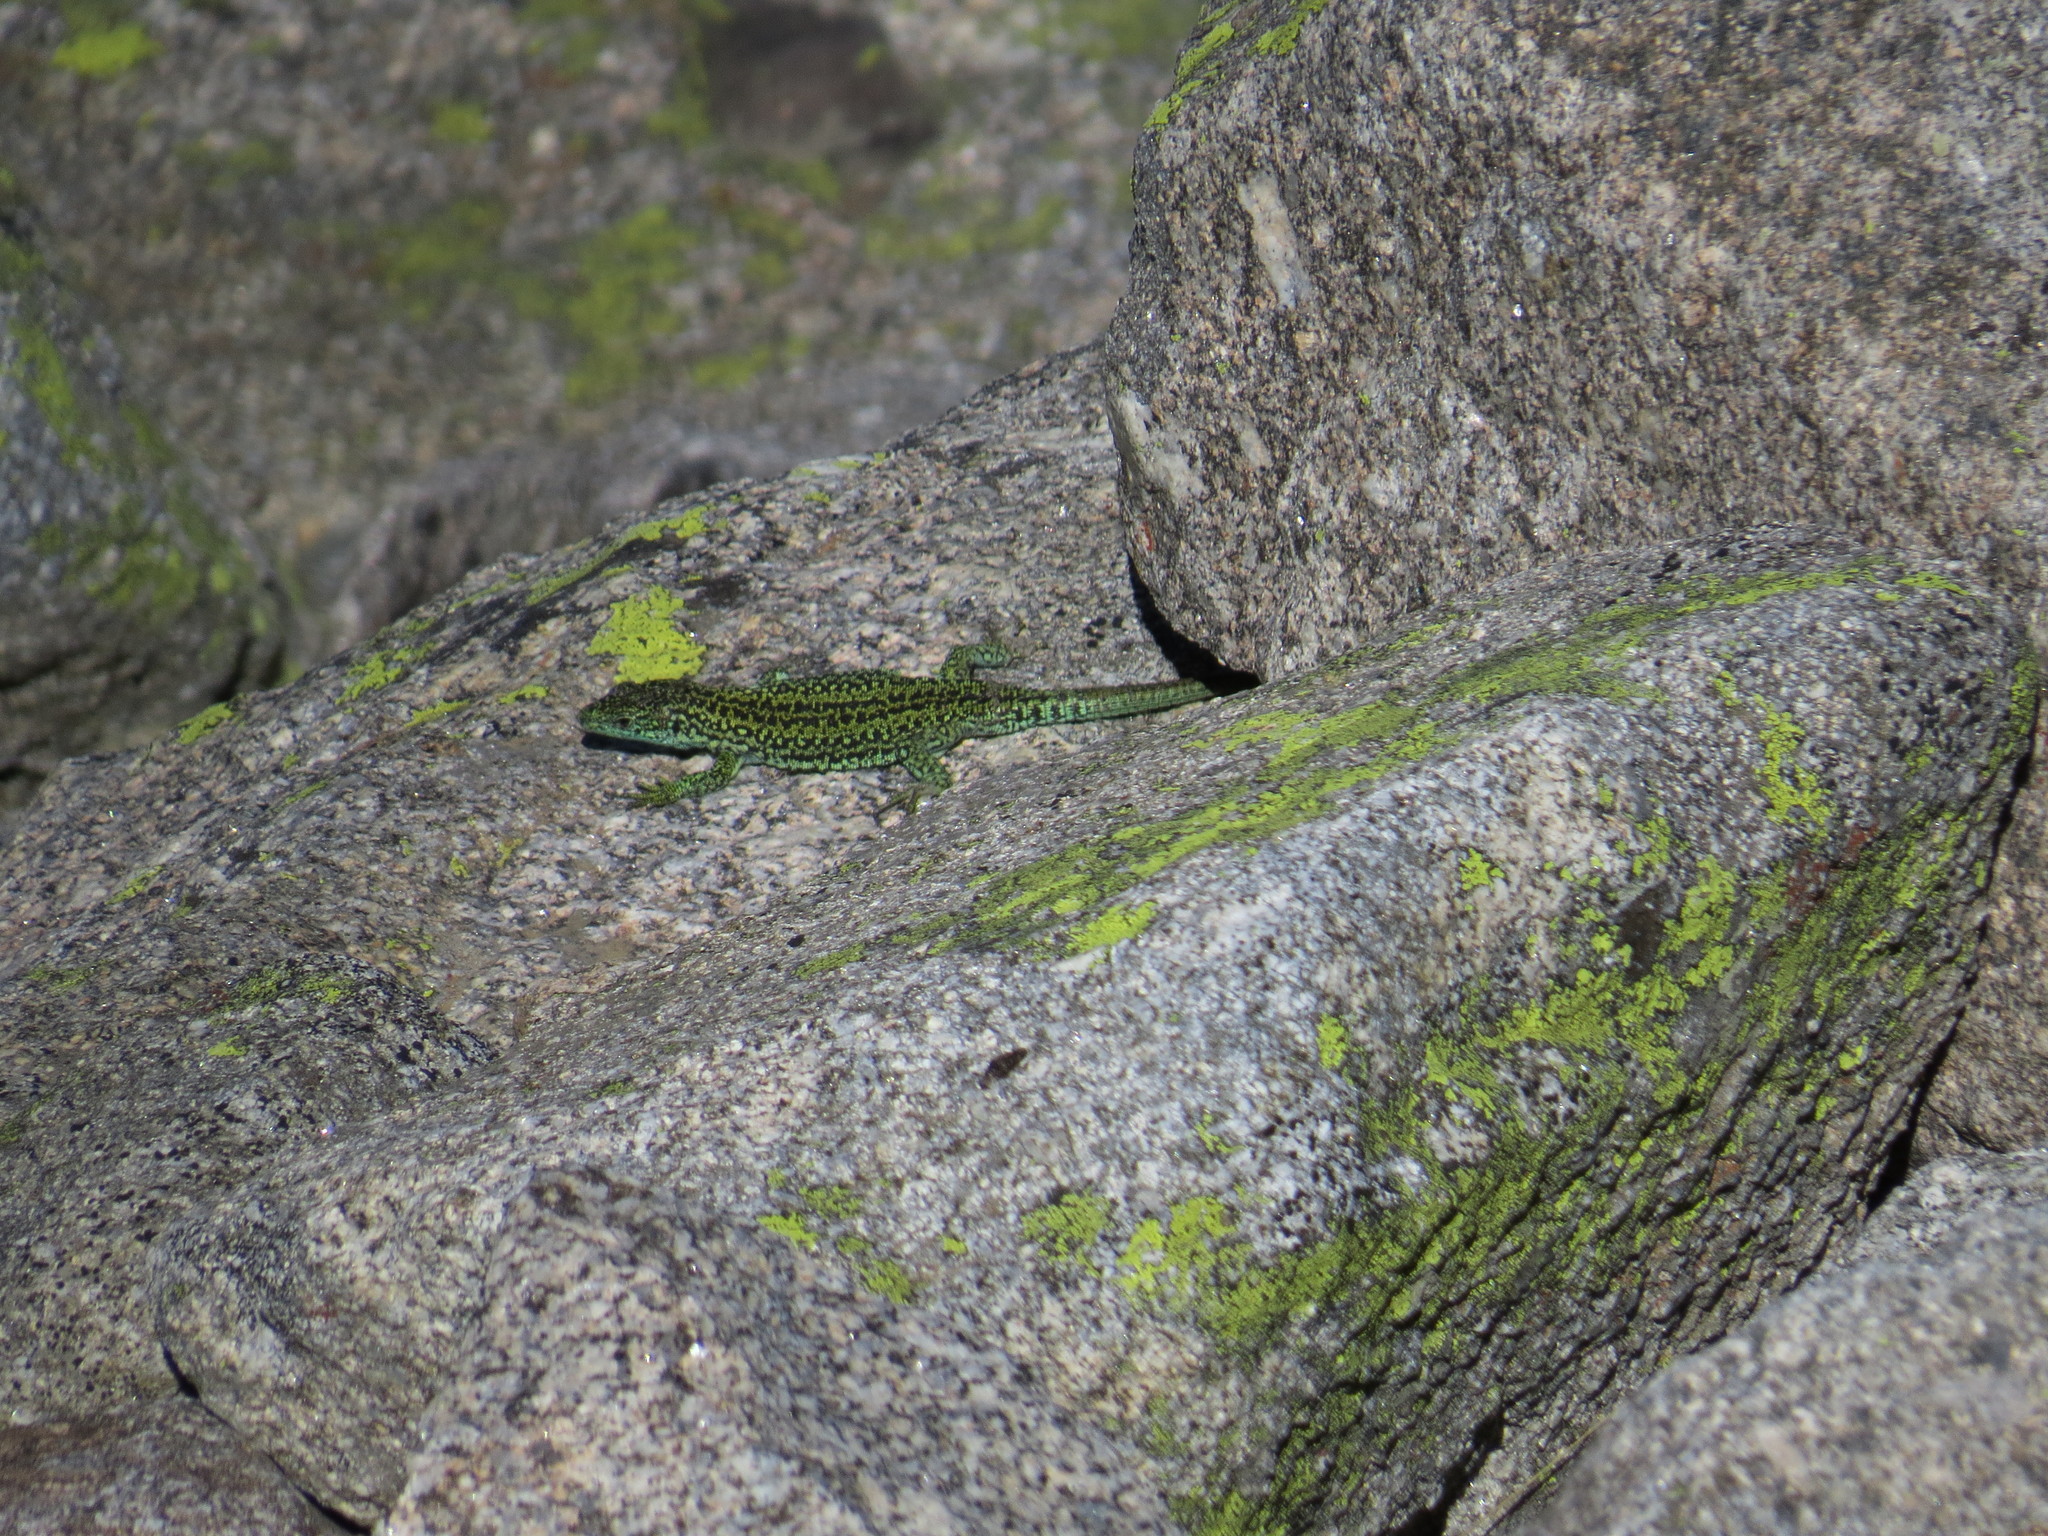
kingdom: Animalia
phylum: Chordata
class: Squamata
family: Lacertidae
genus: Iberolacerta
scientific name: Iberolacerta cyreni
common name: Cyren’s rock lizard
